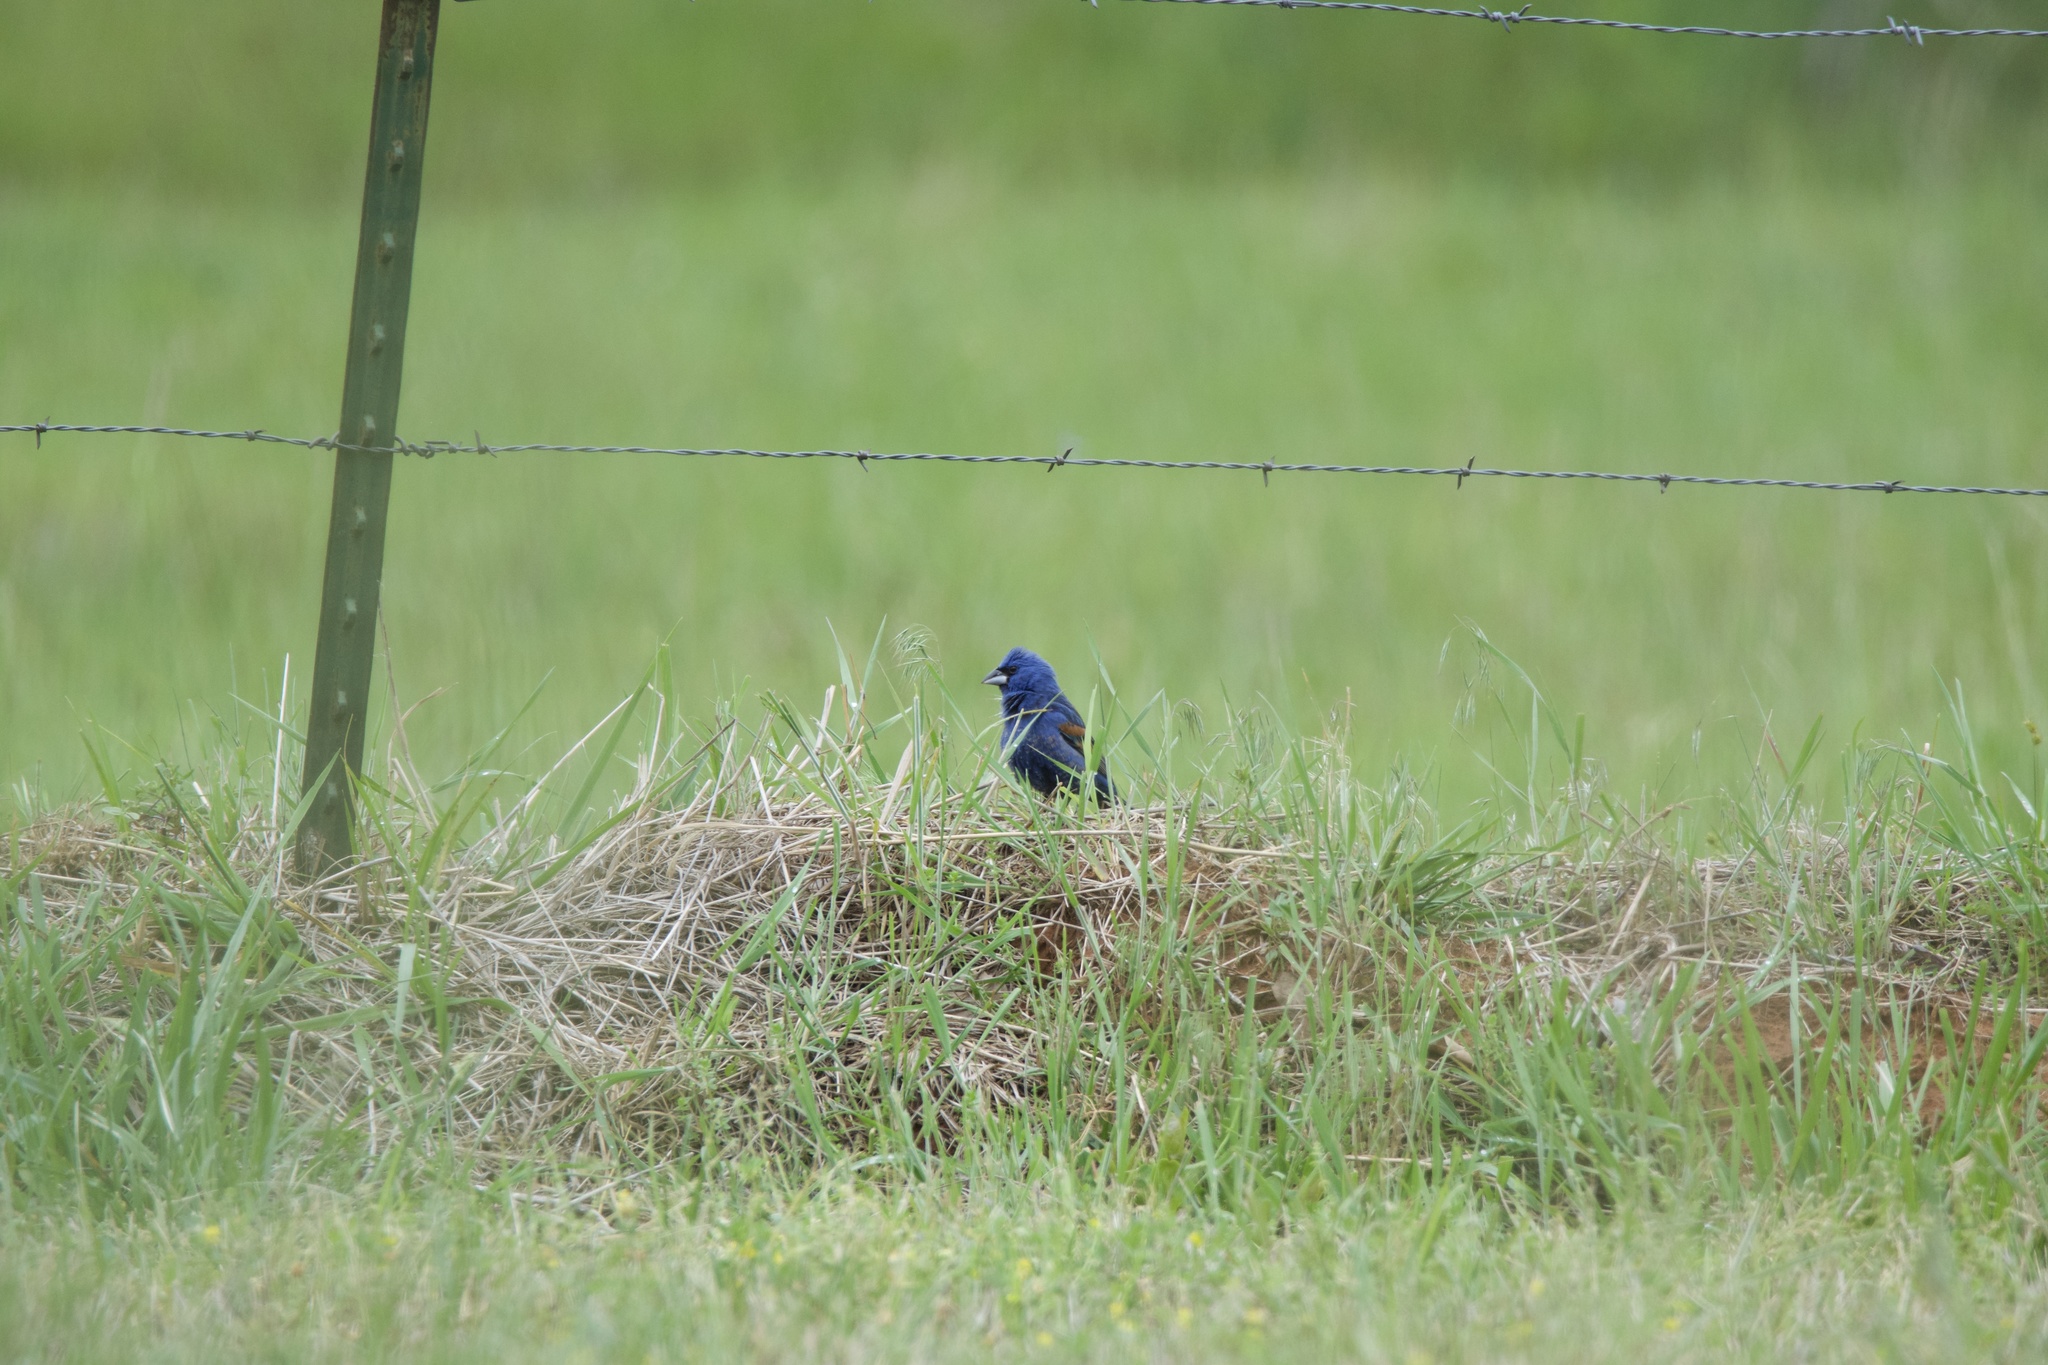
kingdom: Animalia
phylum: Chordata
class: Aves
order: Passeriformes
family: Cardinalidae
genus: Passerina
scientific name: Passerina caerulea
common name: Blue grosbeak
